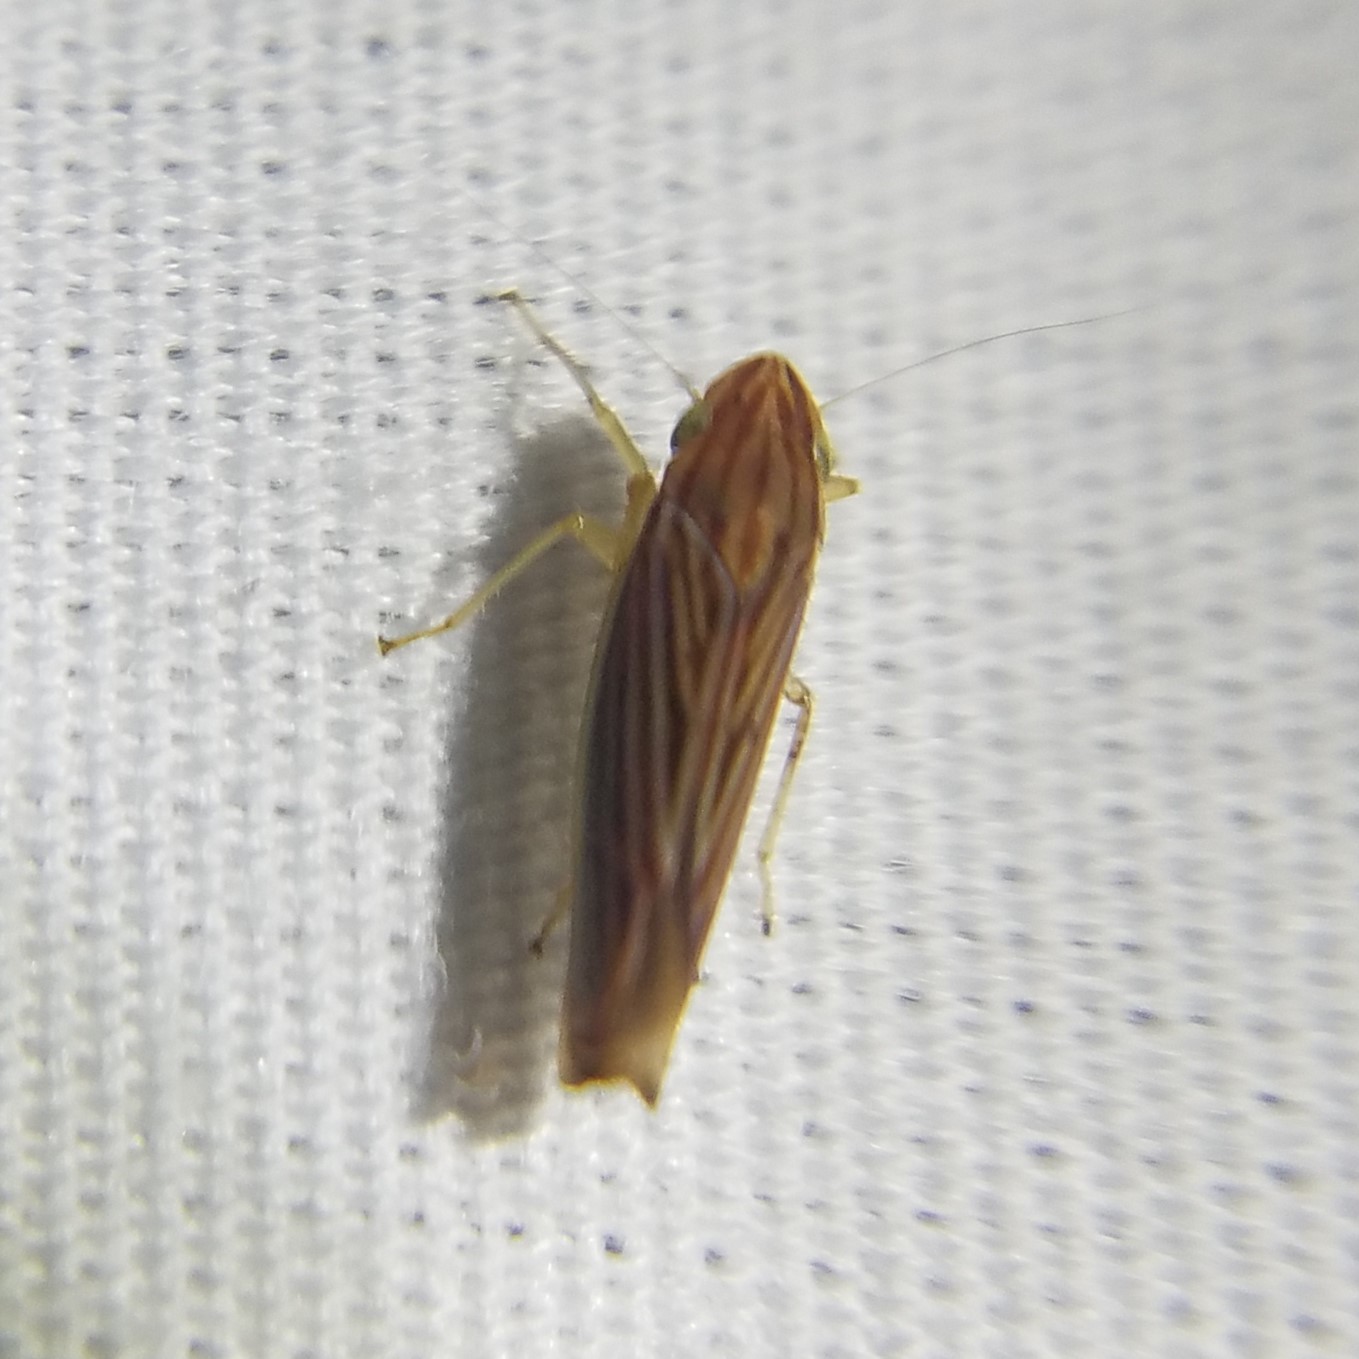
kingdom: Animalia
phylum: Arthropoda
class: Insecta
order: Hemiptera
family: Cicadellidae
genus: Sibovia
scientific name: Sibovia occatoria
